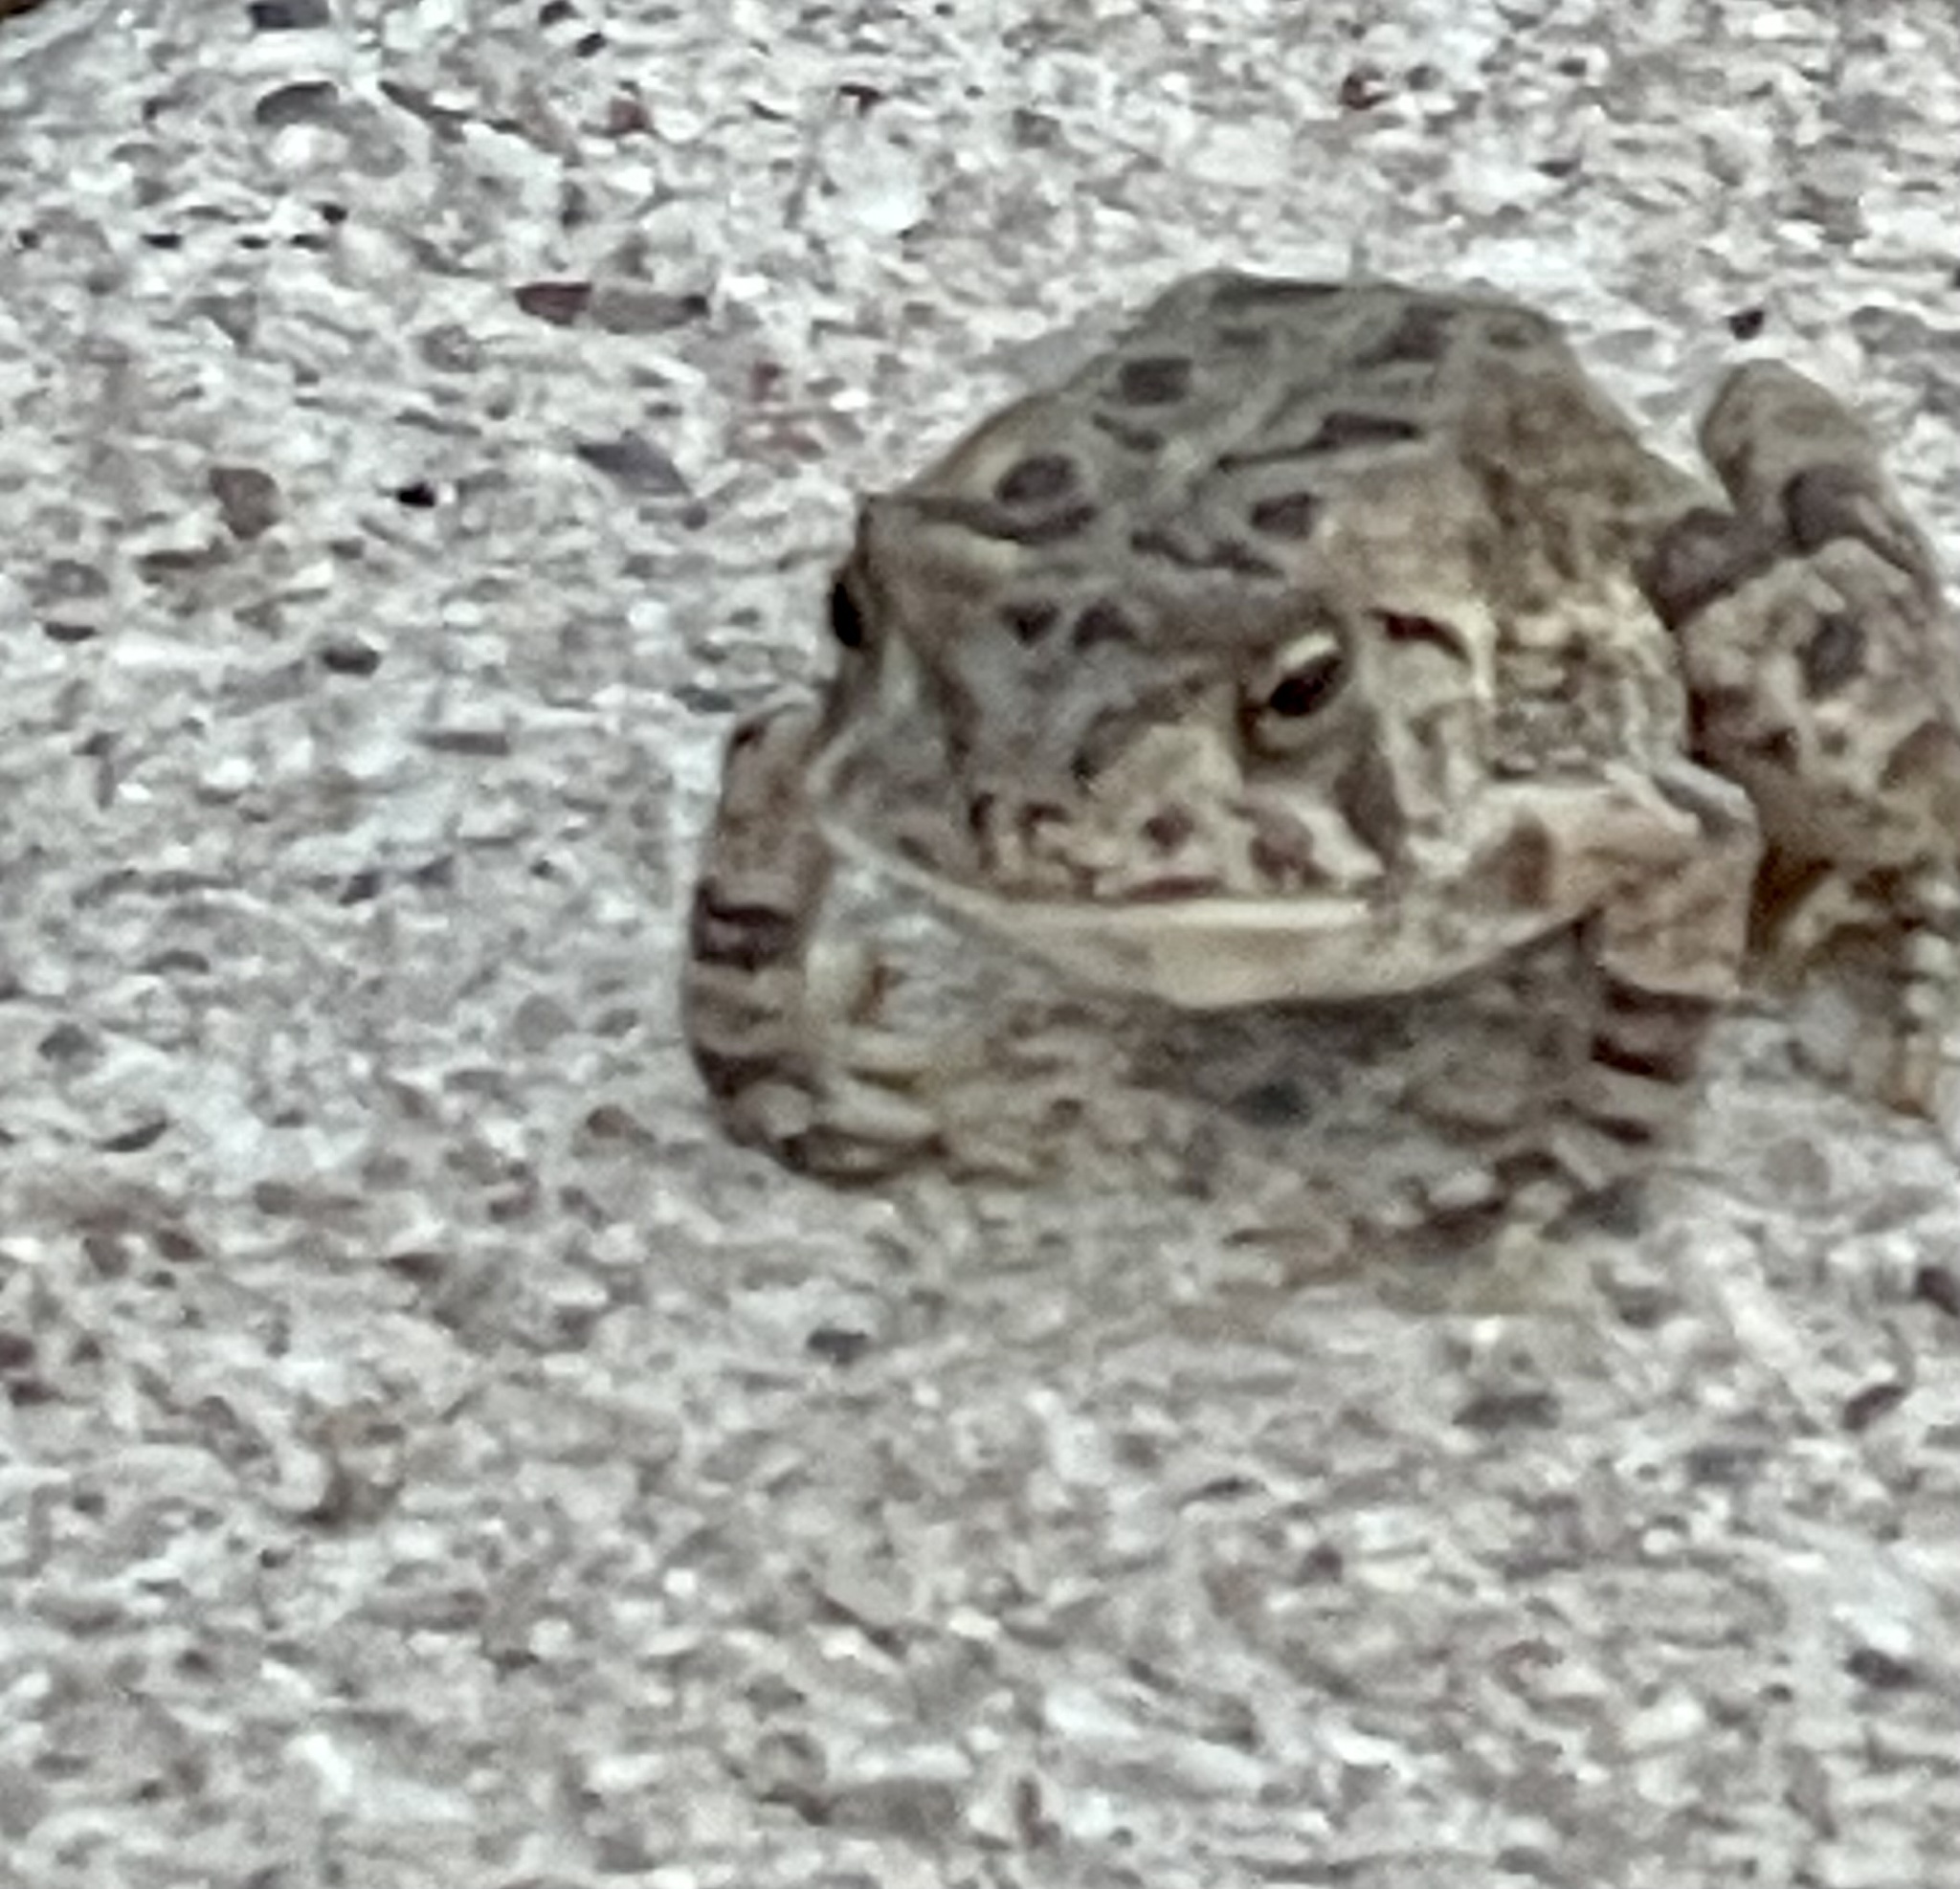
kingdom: Animalia
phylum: Chordata
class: Amphibia
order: Anura
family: Bufonidae
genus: Anaxyrus
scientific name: Anaxyrus fowleri
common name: Fowler's toad
